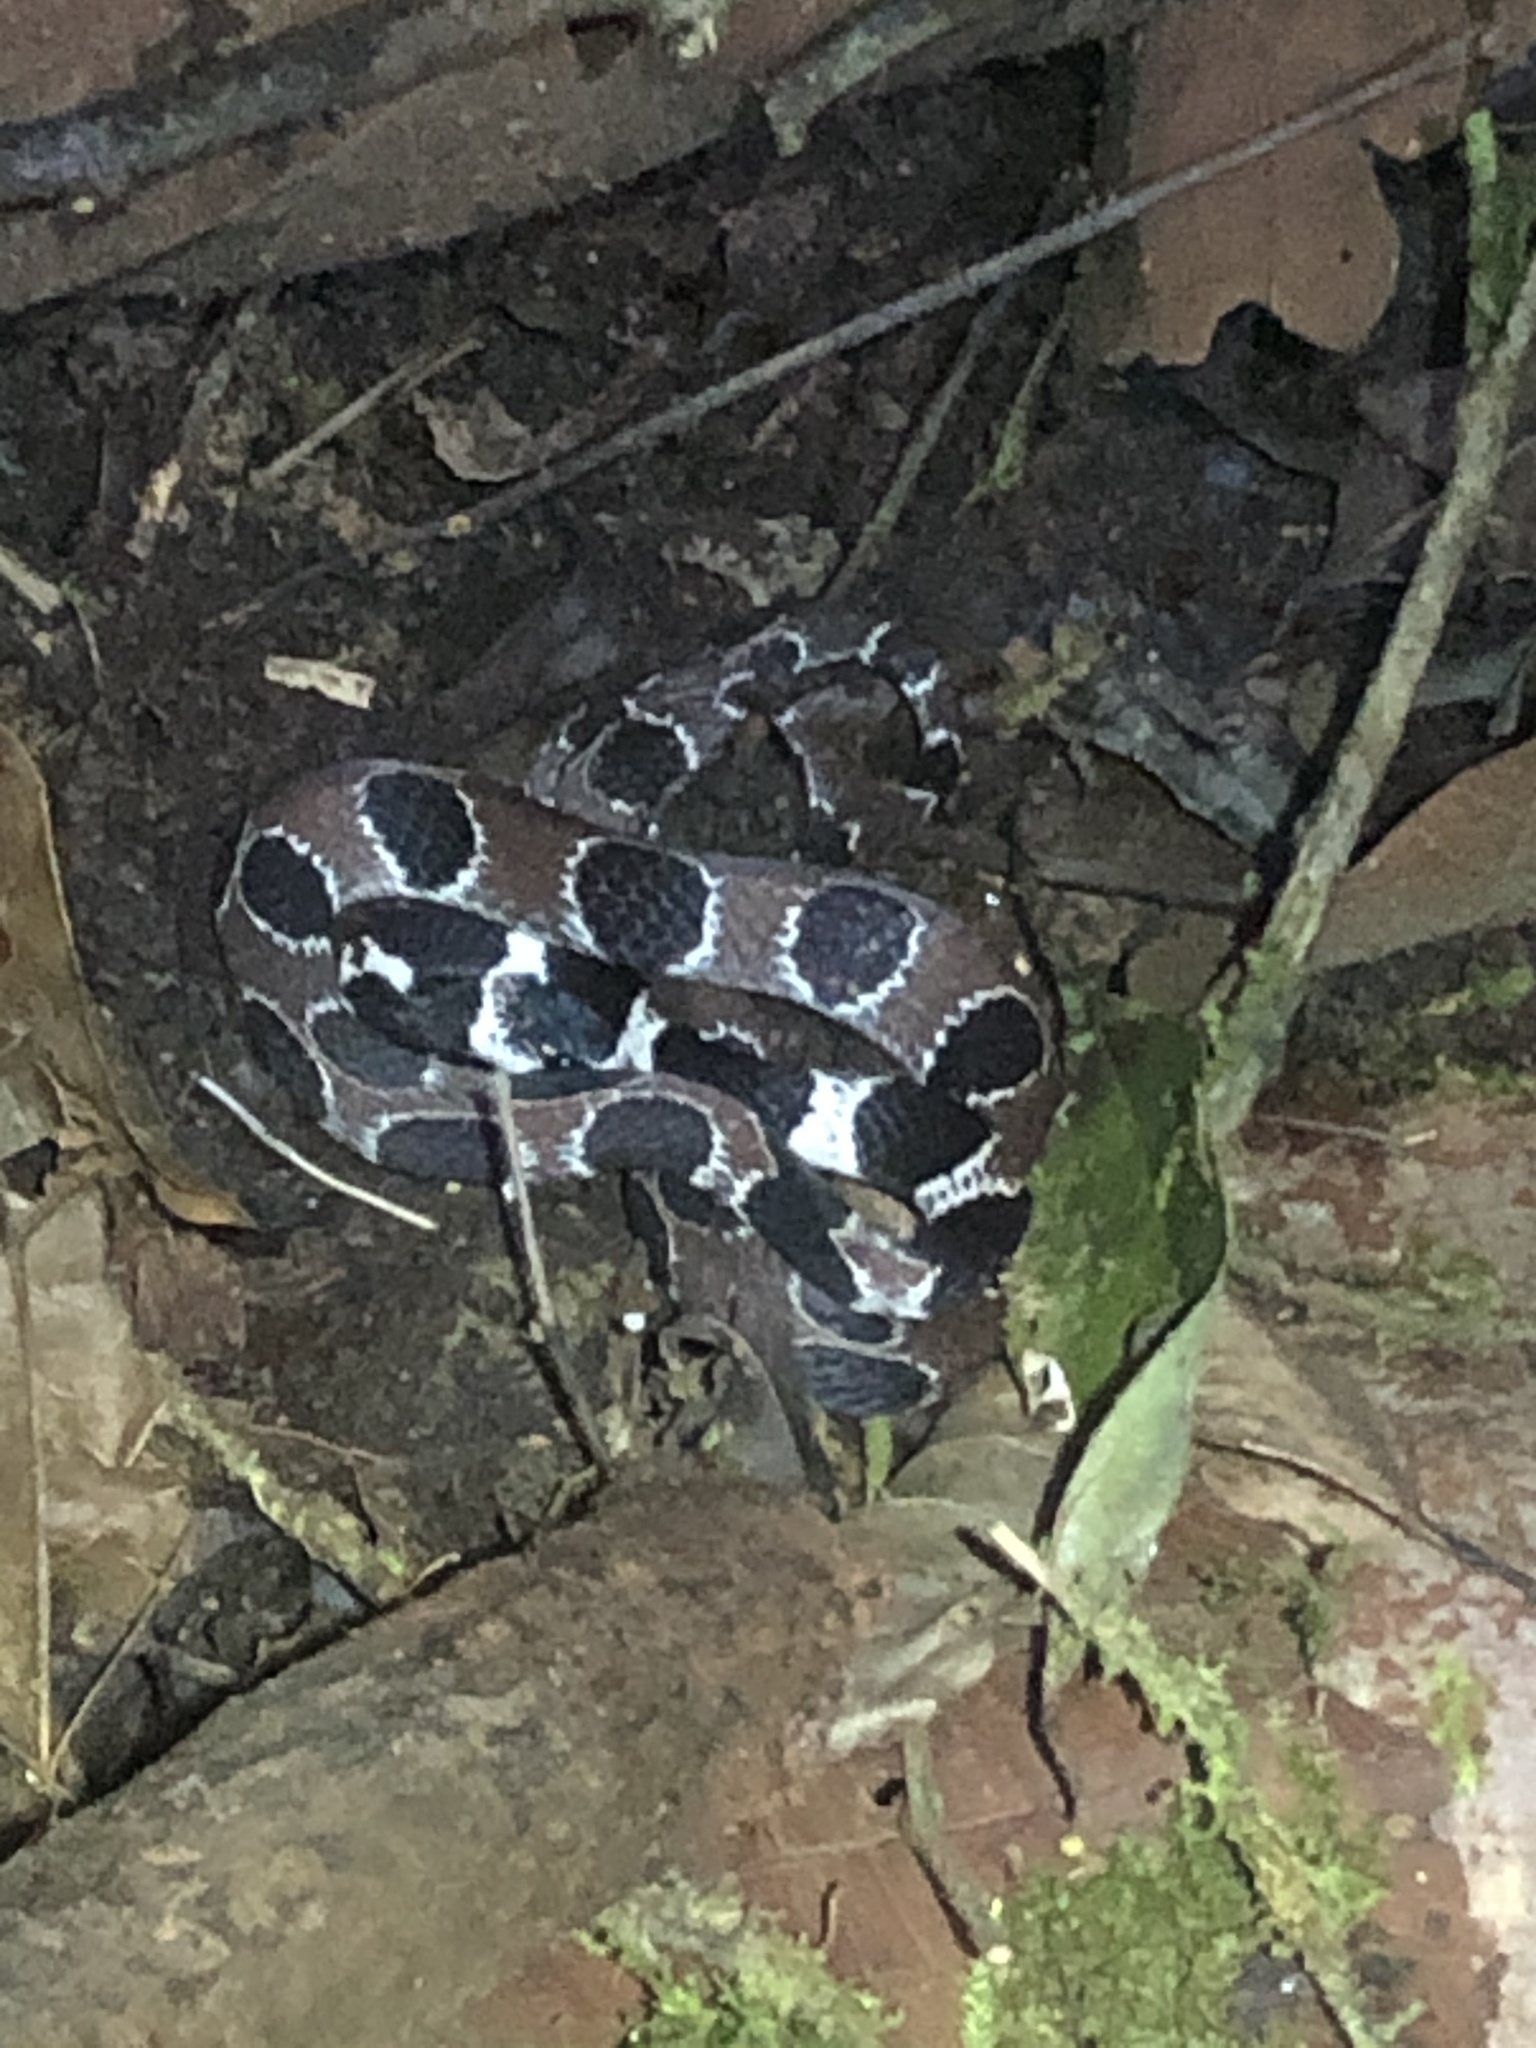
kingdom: Animalia
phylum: Chordata
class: Squamata
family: Colubridae
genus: Dipsas
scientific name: Dipsas catesbyi
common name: Catesby's snail-eater
